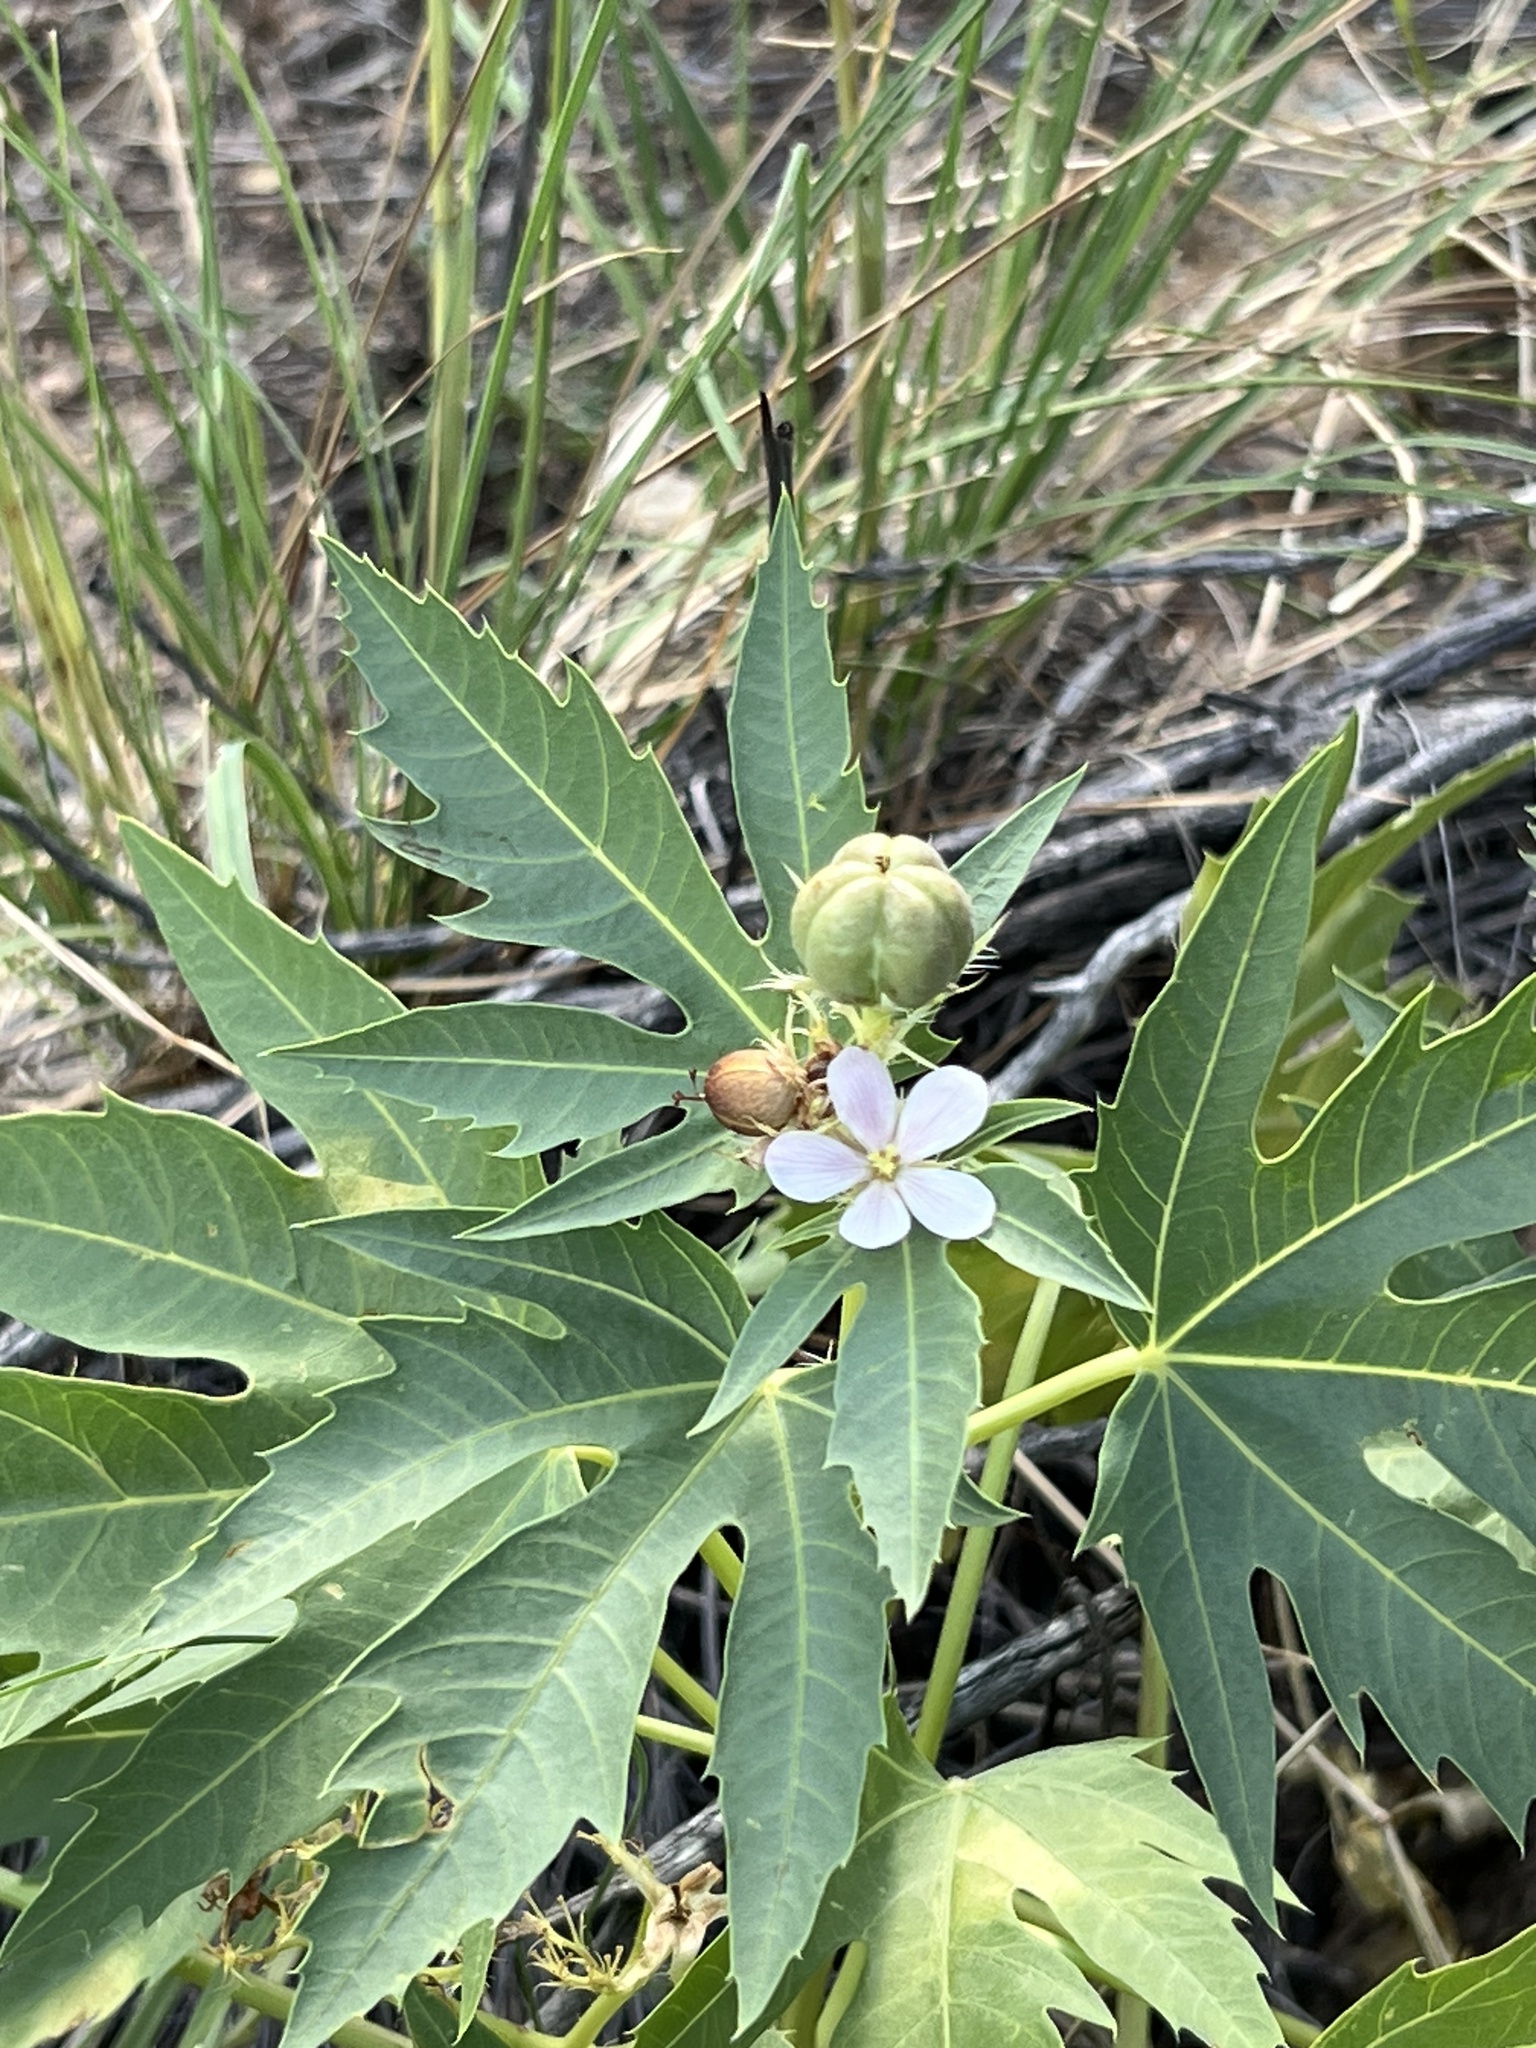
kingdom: Plantae
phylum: Tracheophyta
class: Magnoliopsida
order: Malpighiales
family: Euphorbiaceae
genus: Jatropha
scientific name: Jatropha macrorhiza
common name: Ragged nettlespurge
